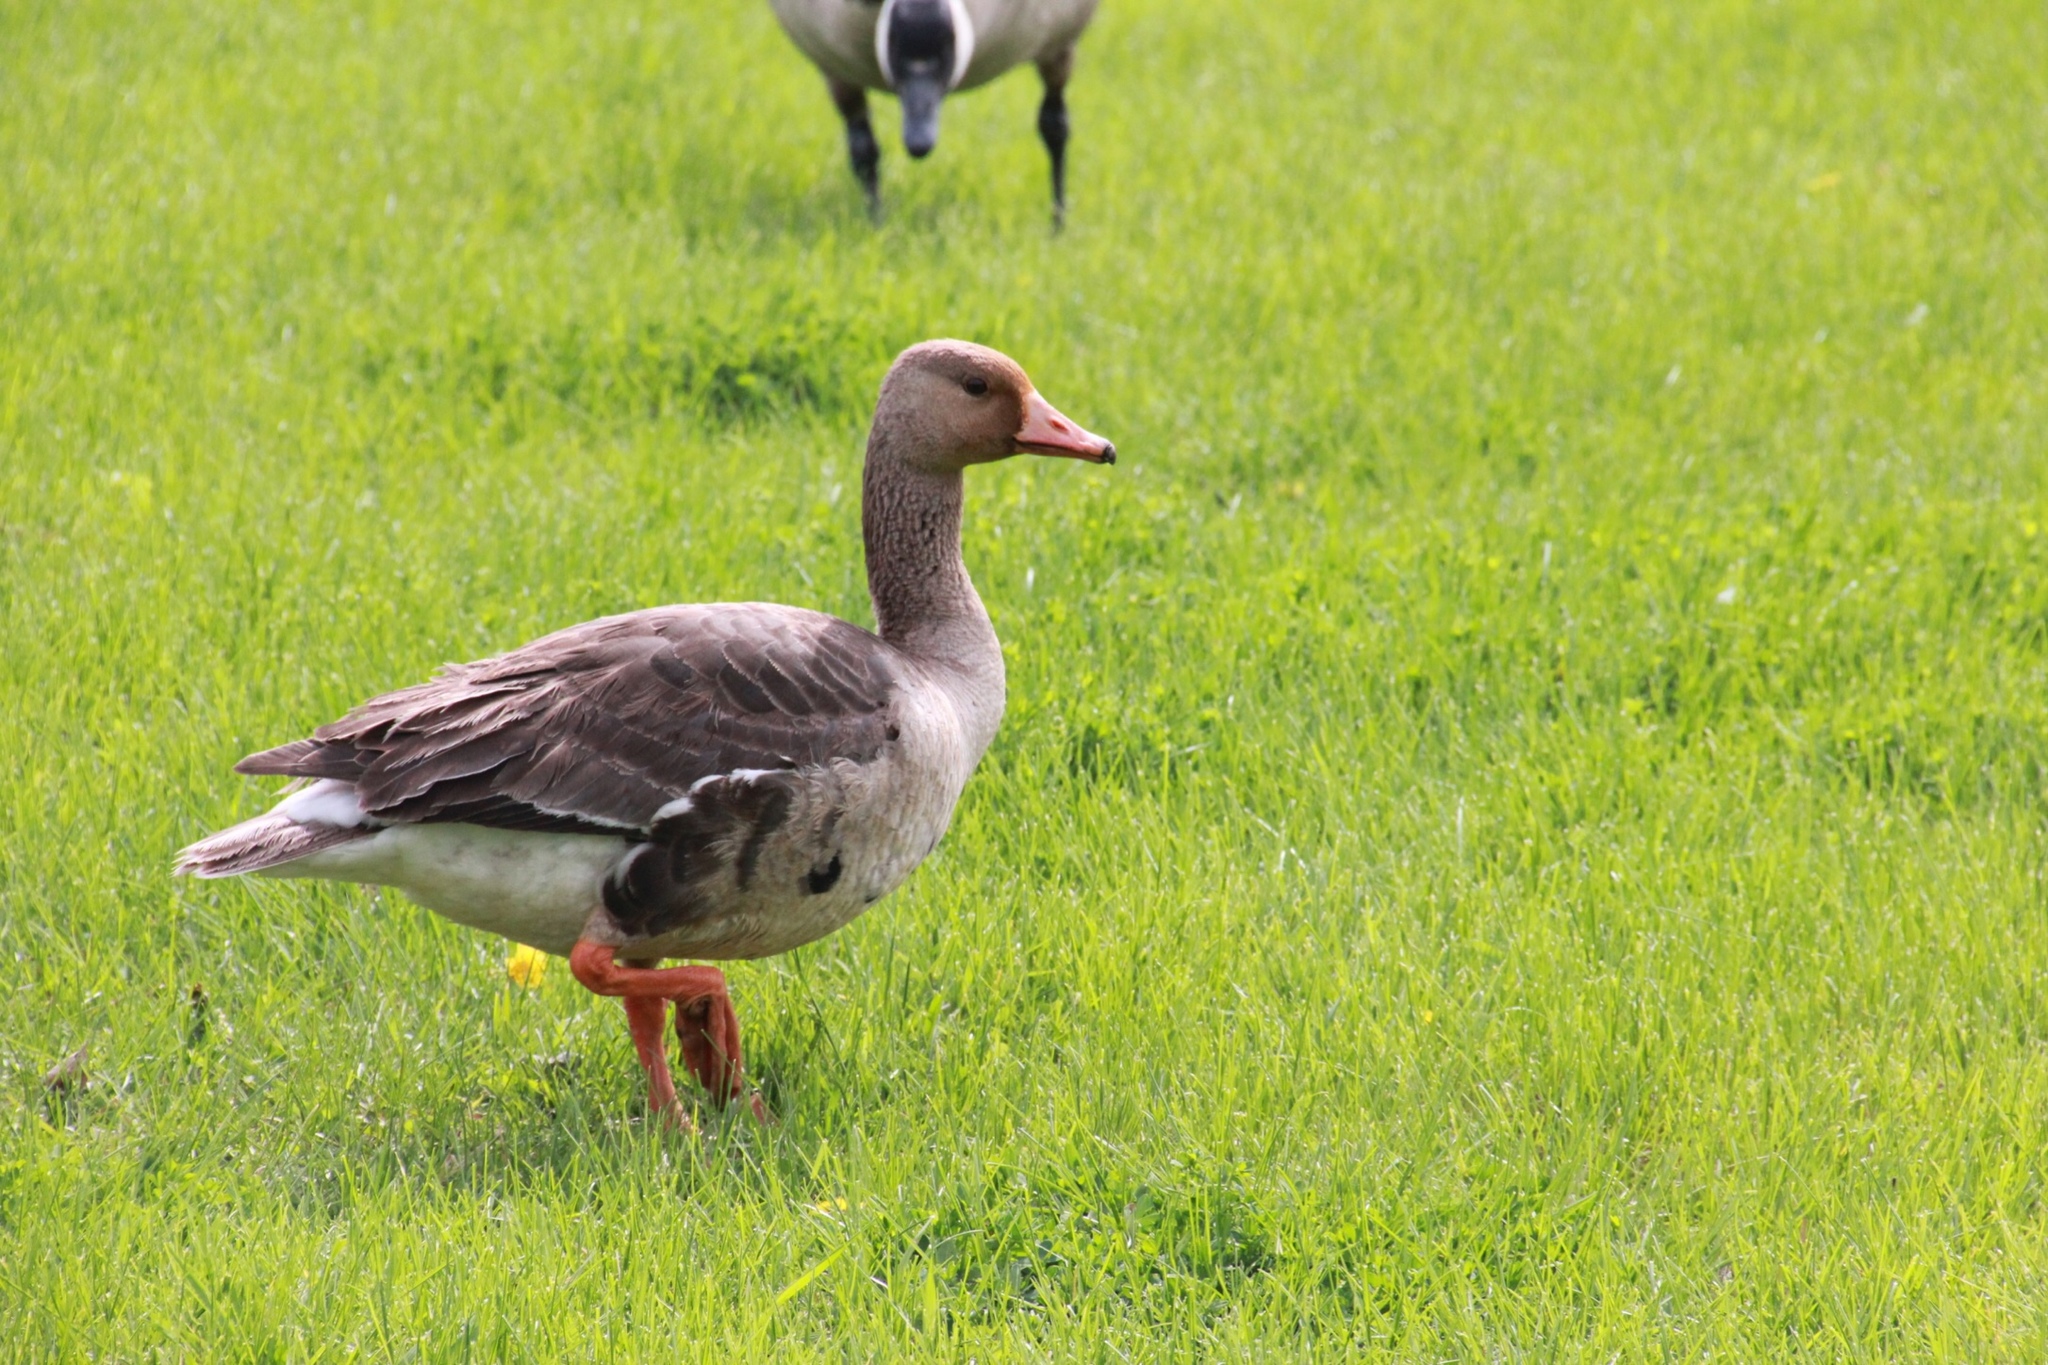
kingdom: Animalia
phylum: Chordata
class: Aves
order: Anseriformes
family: Anatidae
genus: Anser
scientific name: Anser albifrons
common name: Greater white-fronted goose
